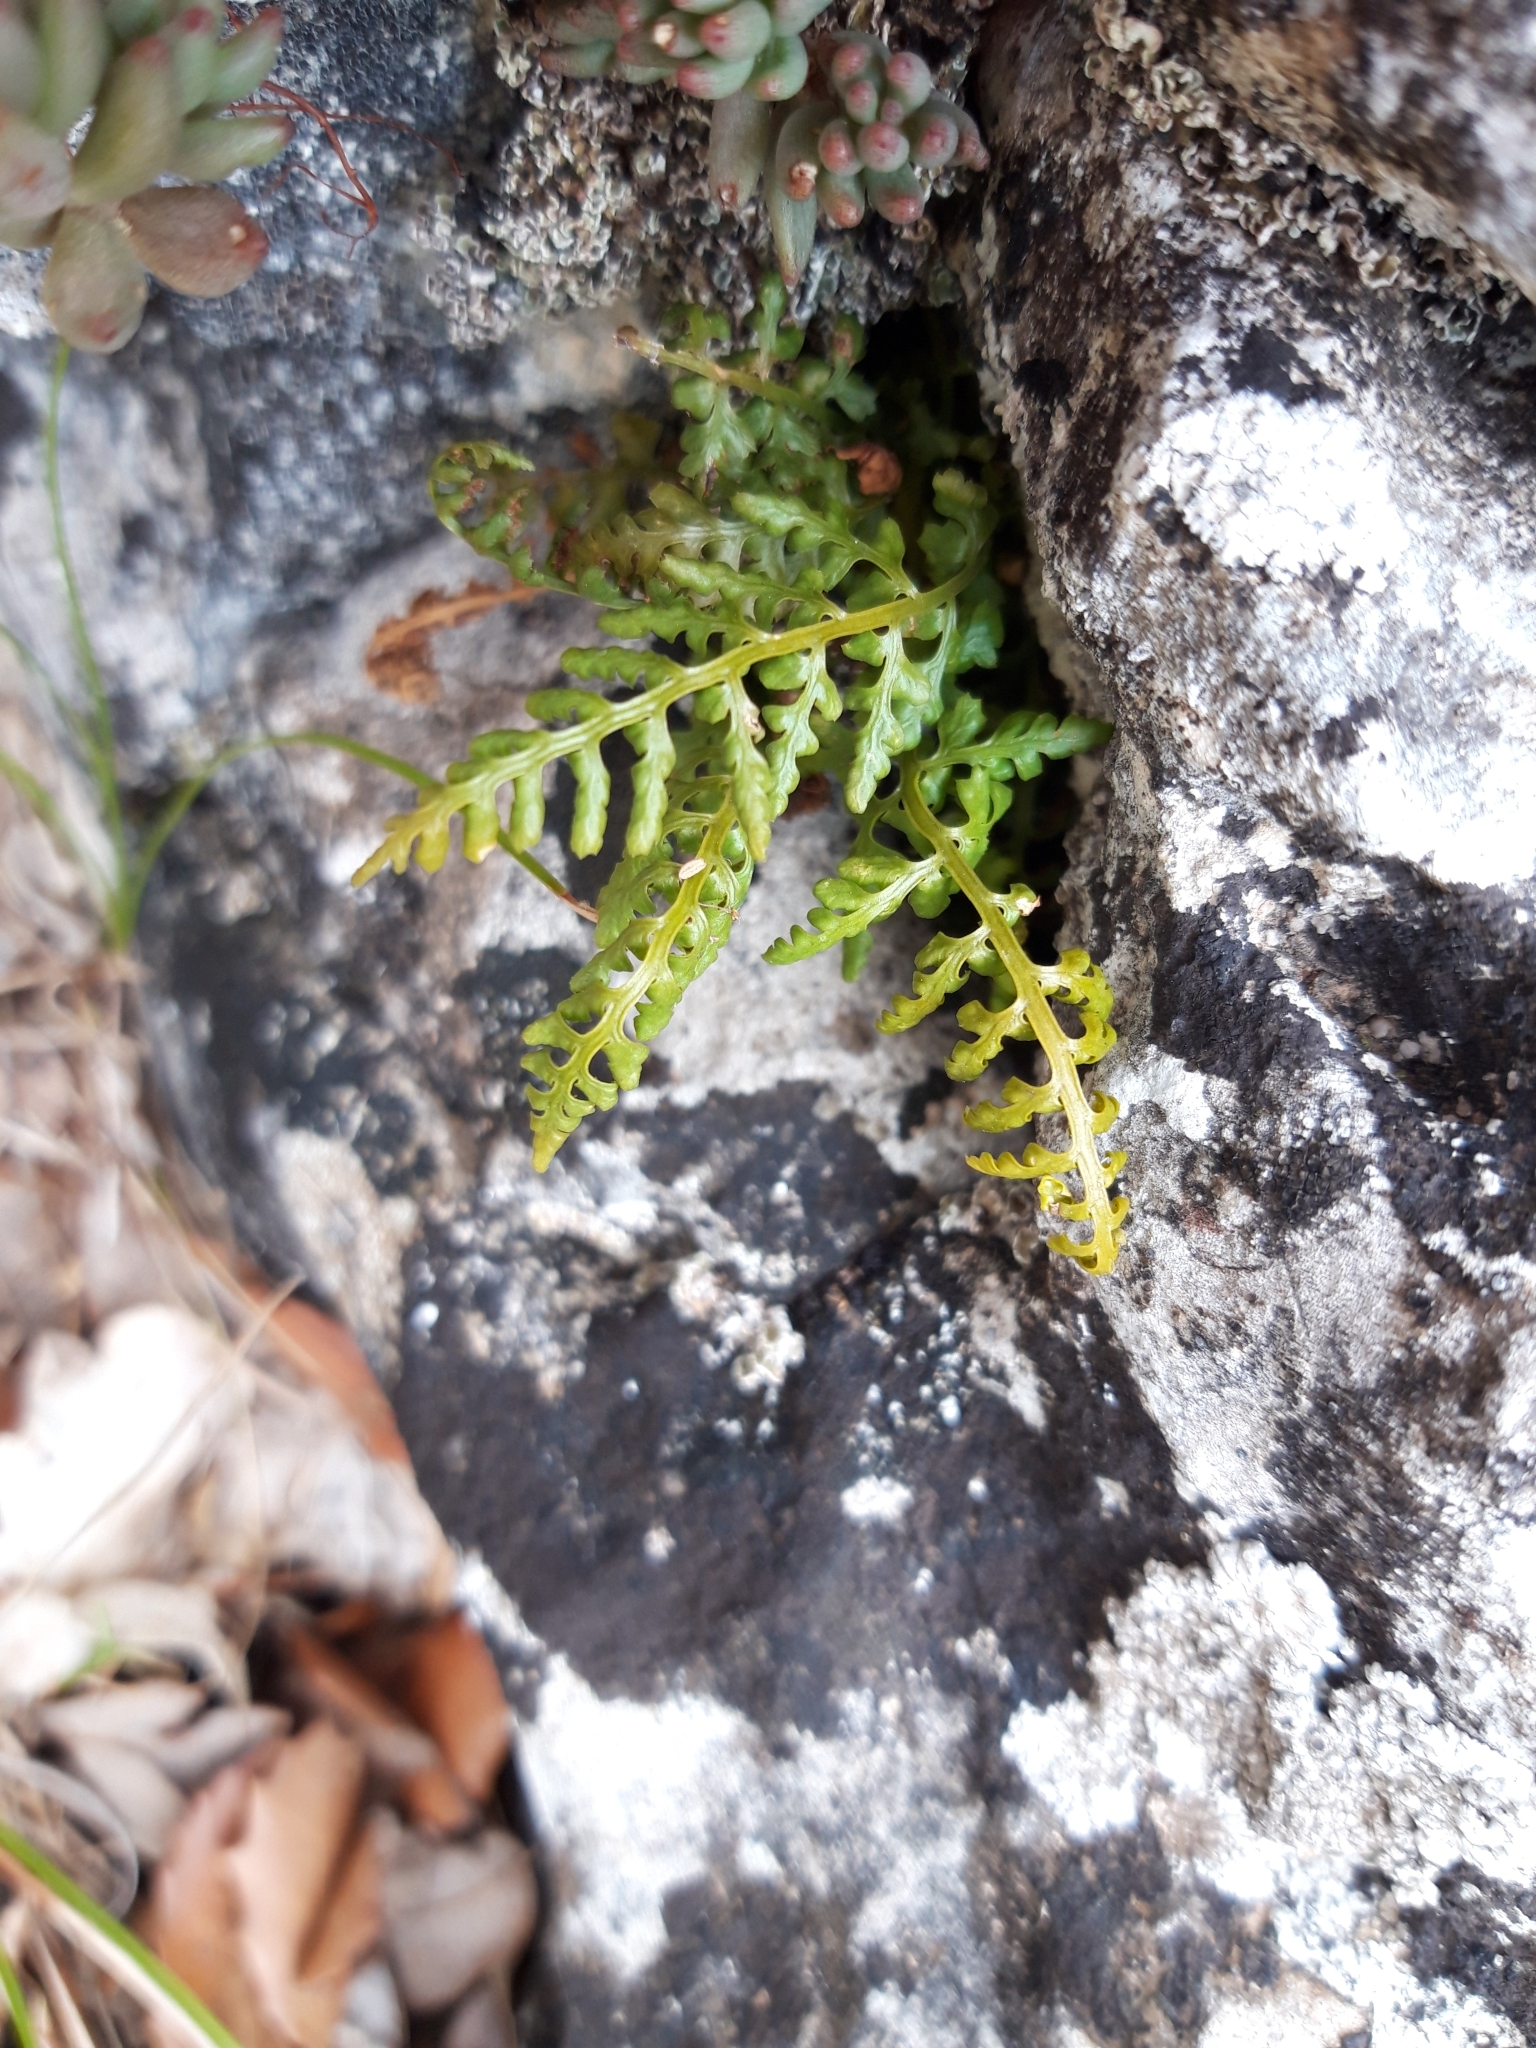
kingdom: Plantae
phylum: Tracheophyta
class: Polypodiopsida
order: Polypodiales
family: Aspleniaceae
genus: Asplenium
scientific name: Asplenium fontanum
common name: Fountain spleenwort
